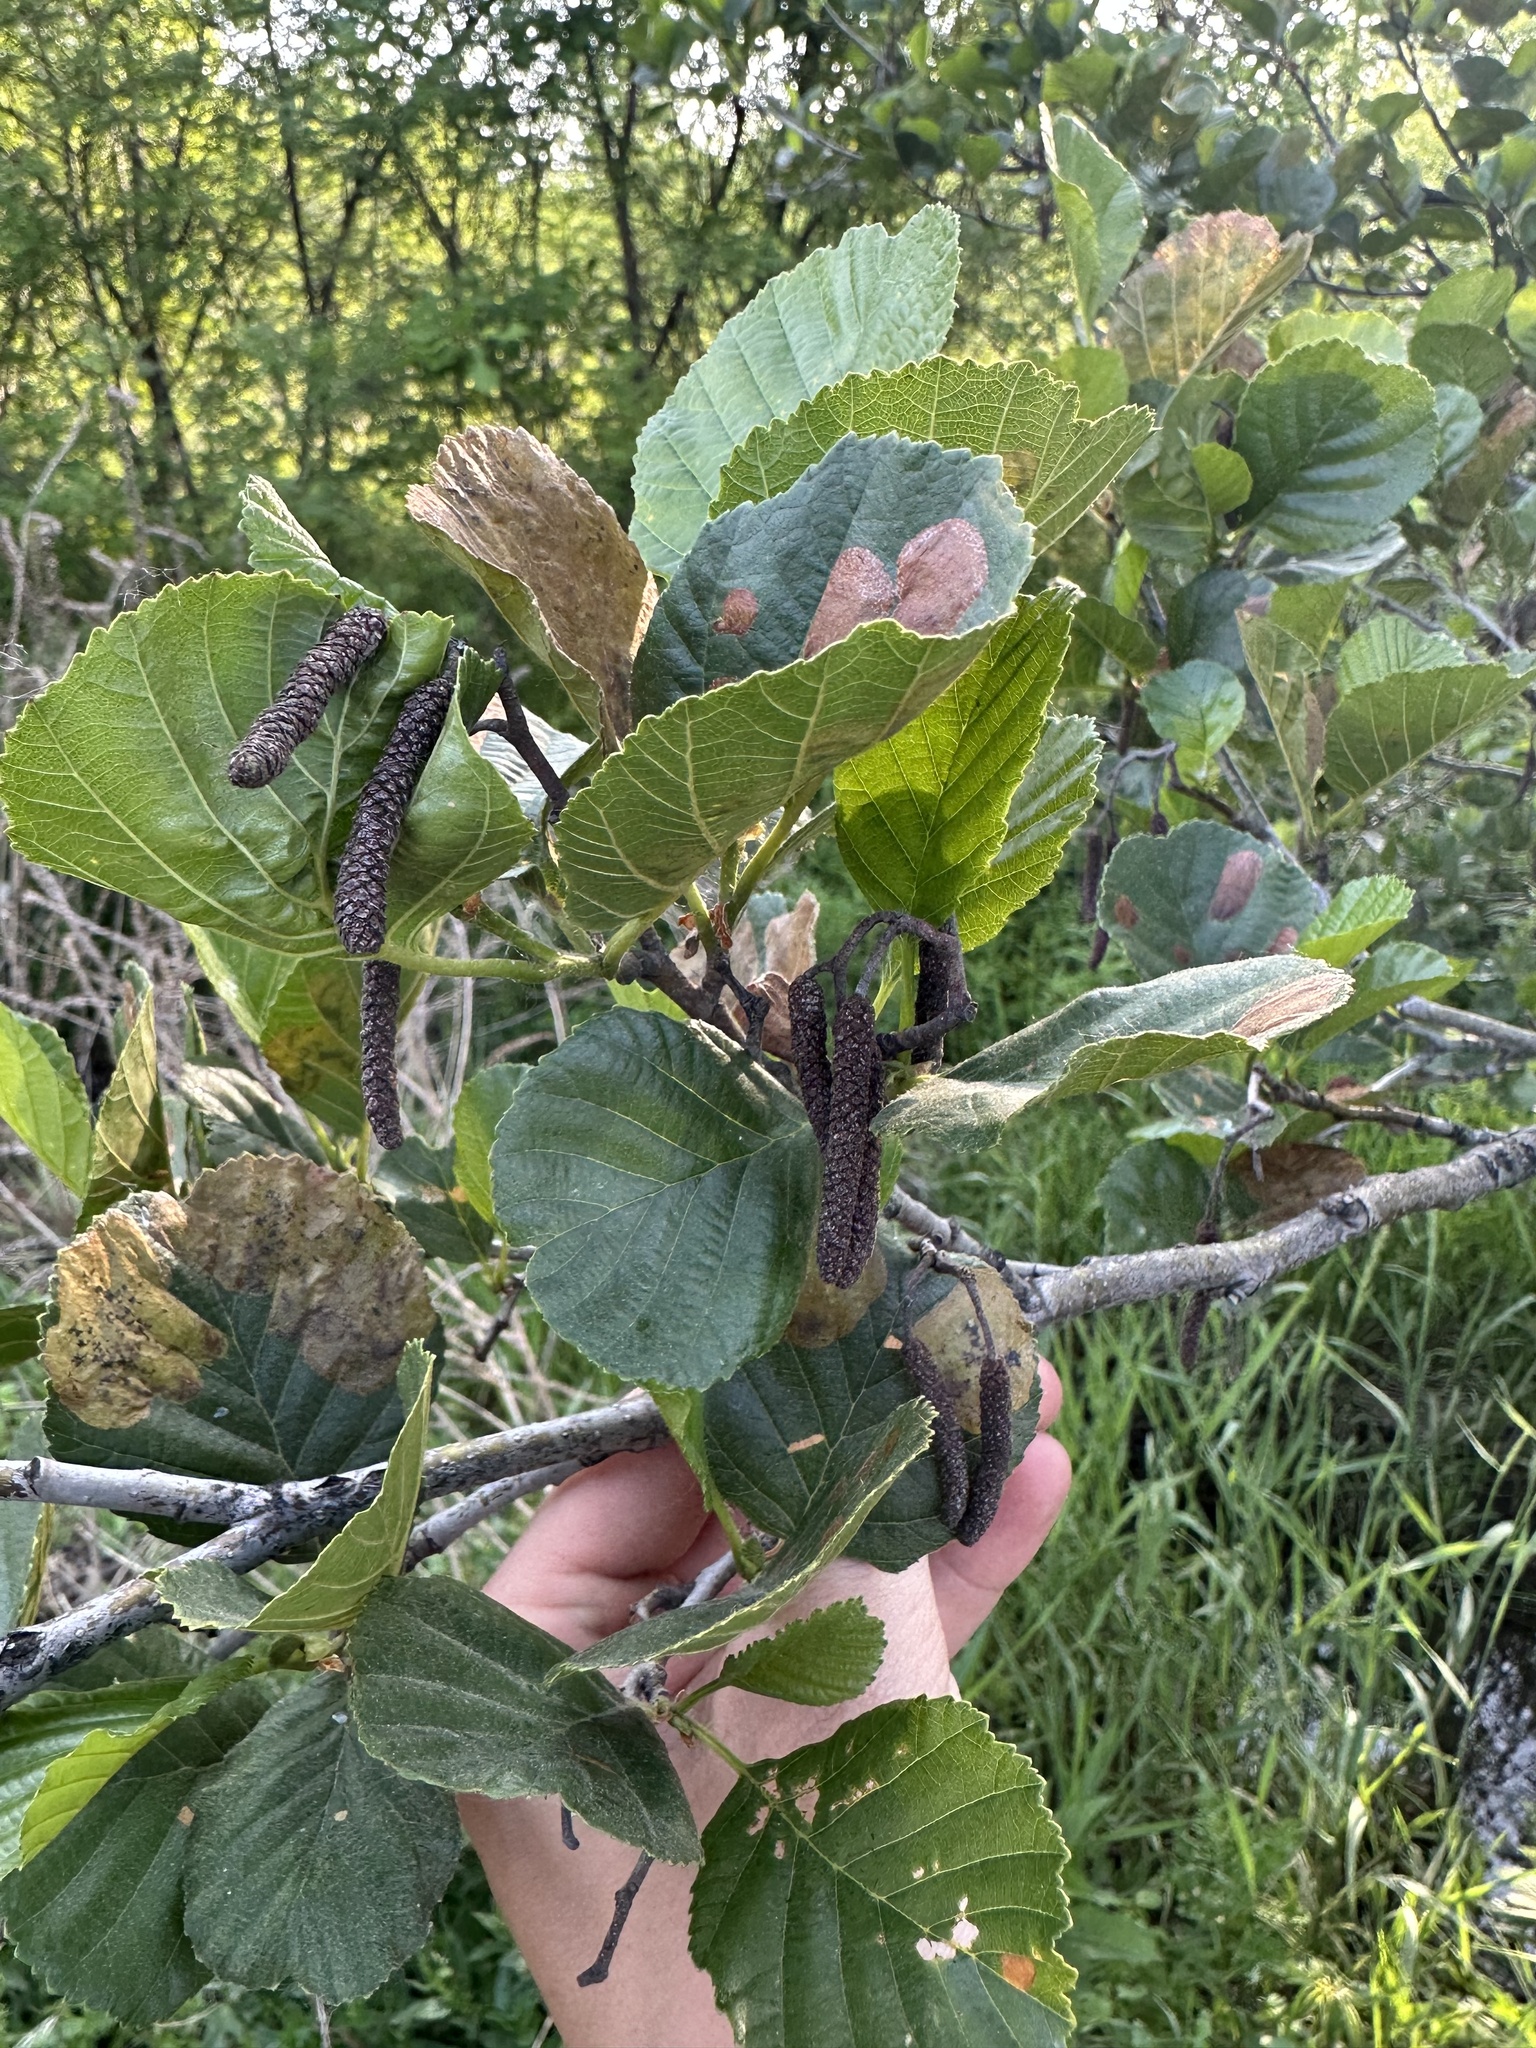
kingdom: Plantae
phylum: Tracheophyta
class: Magnoliopsida
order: Fagales
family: Betulaceae
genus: Alnus
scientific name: Alnus glutinosa
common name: Black alder
